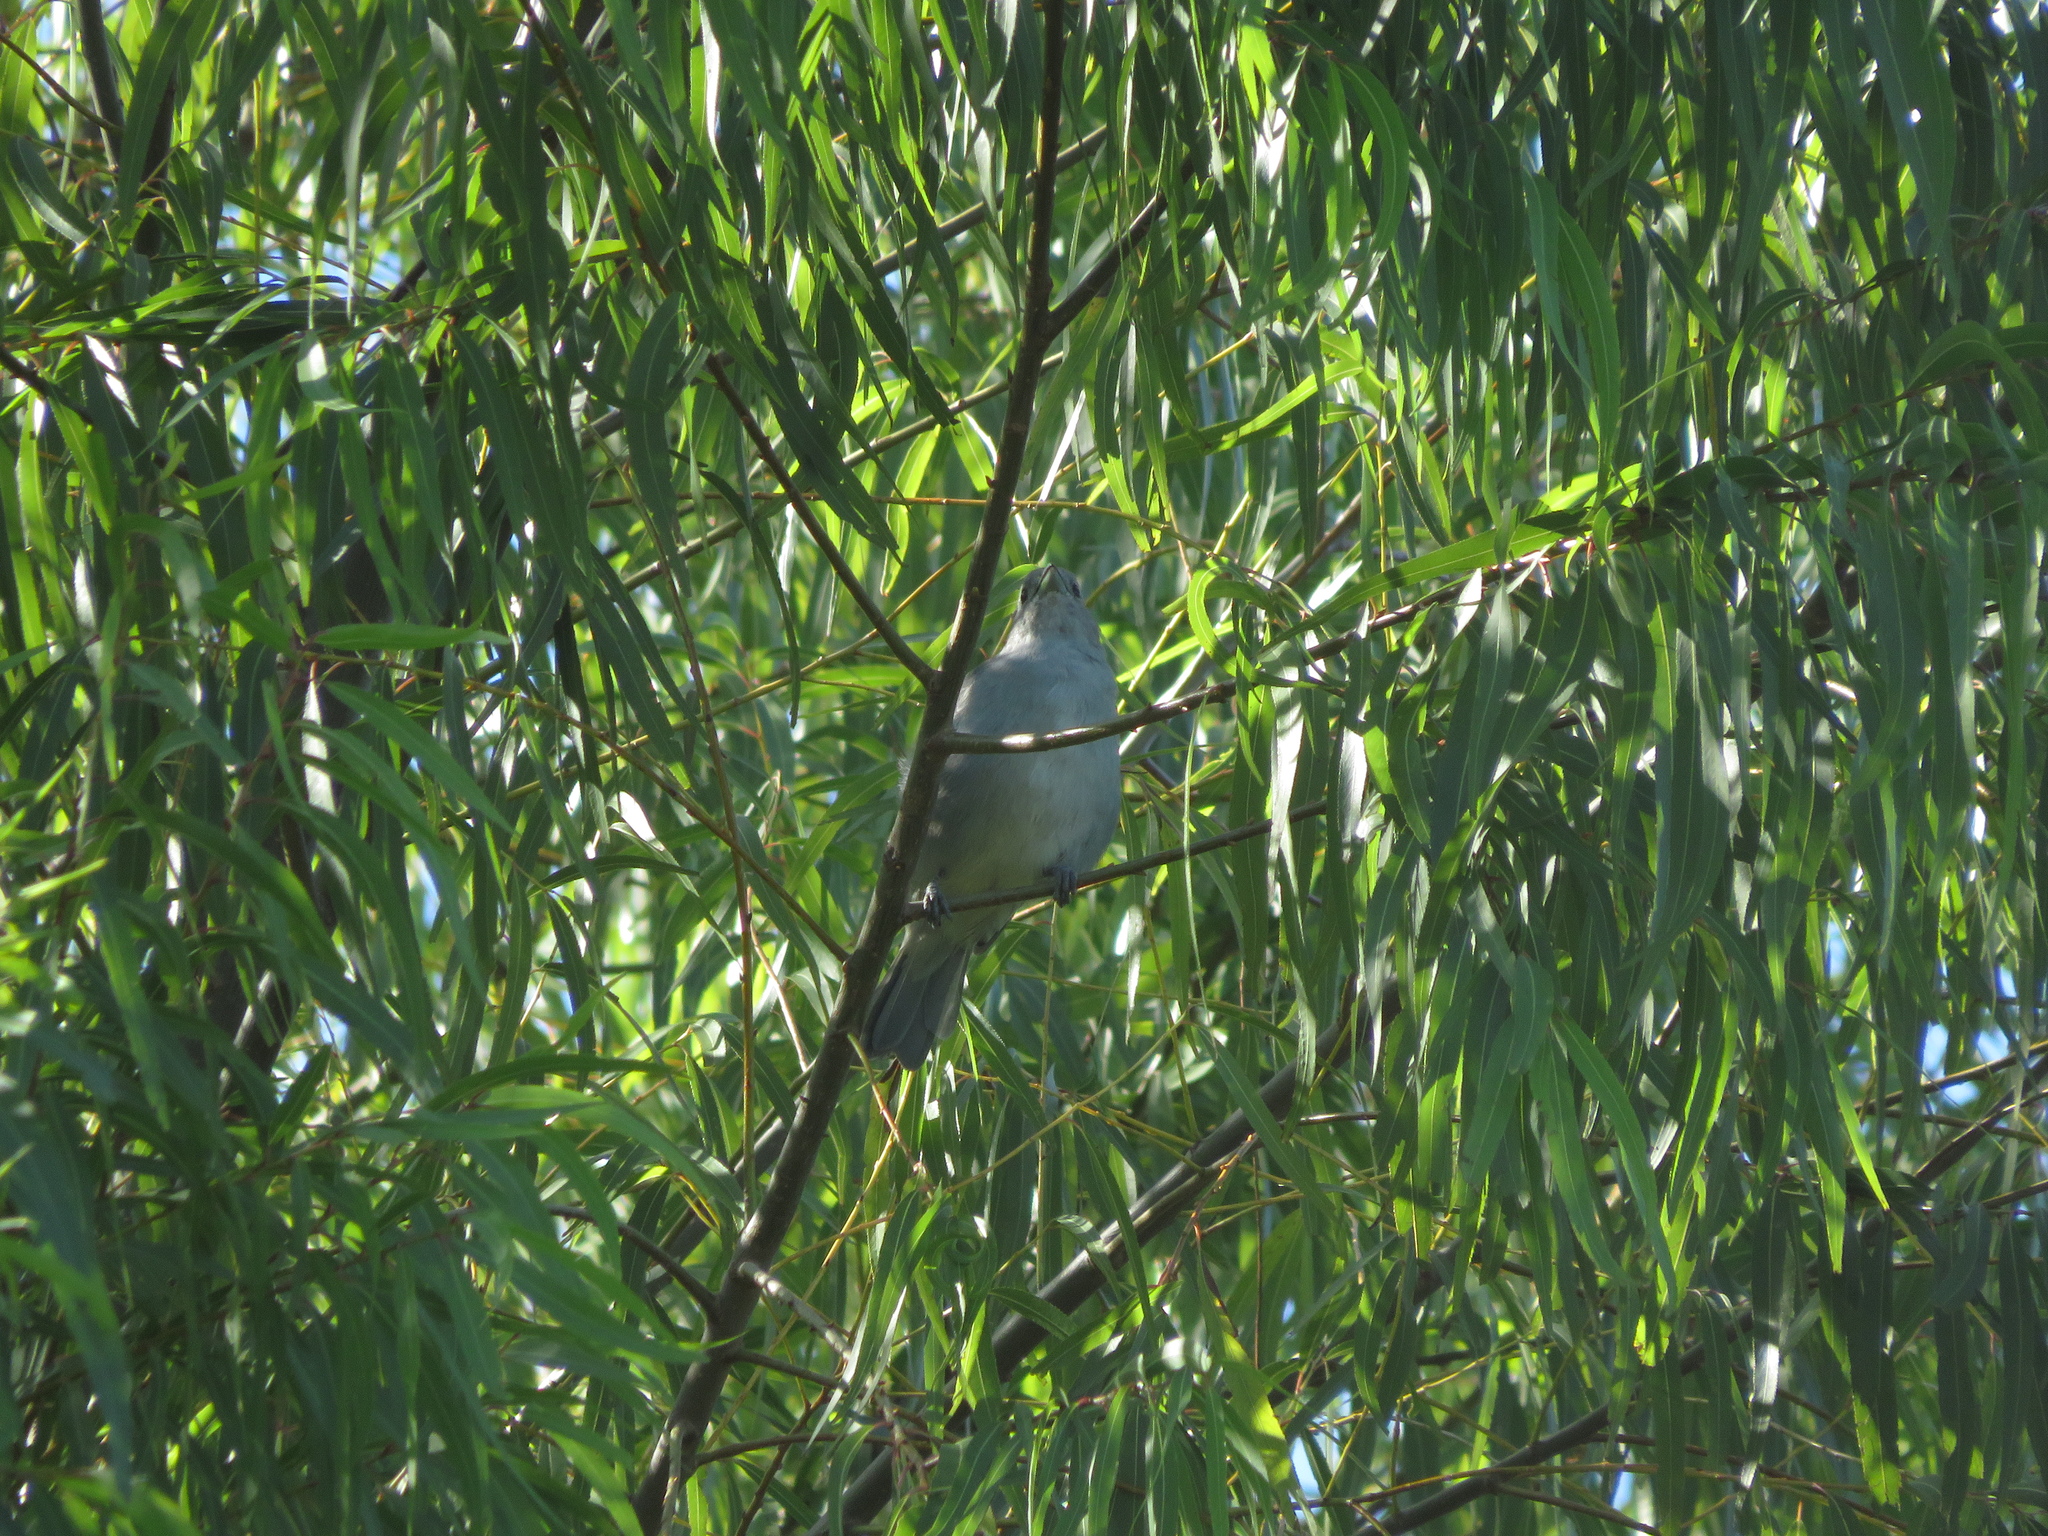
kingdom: Animalia
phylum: Chordata
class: Aves
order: Passeriformes
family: Thraupidae
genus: Thraupis
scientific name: Thraupis sayaca
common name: Sayaca tanager
